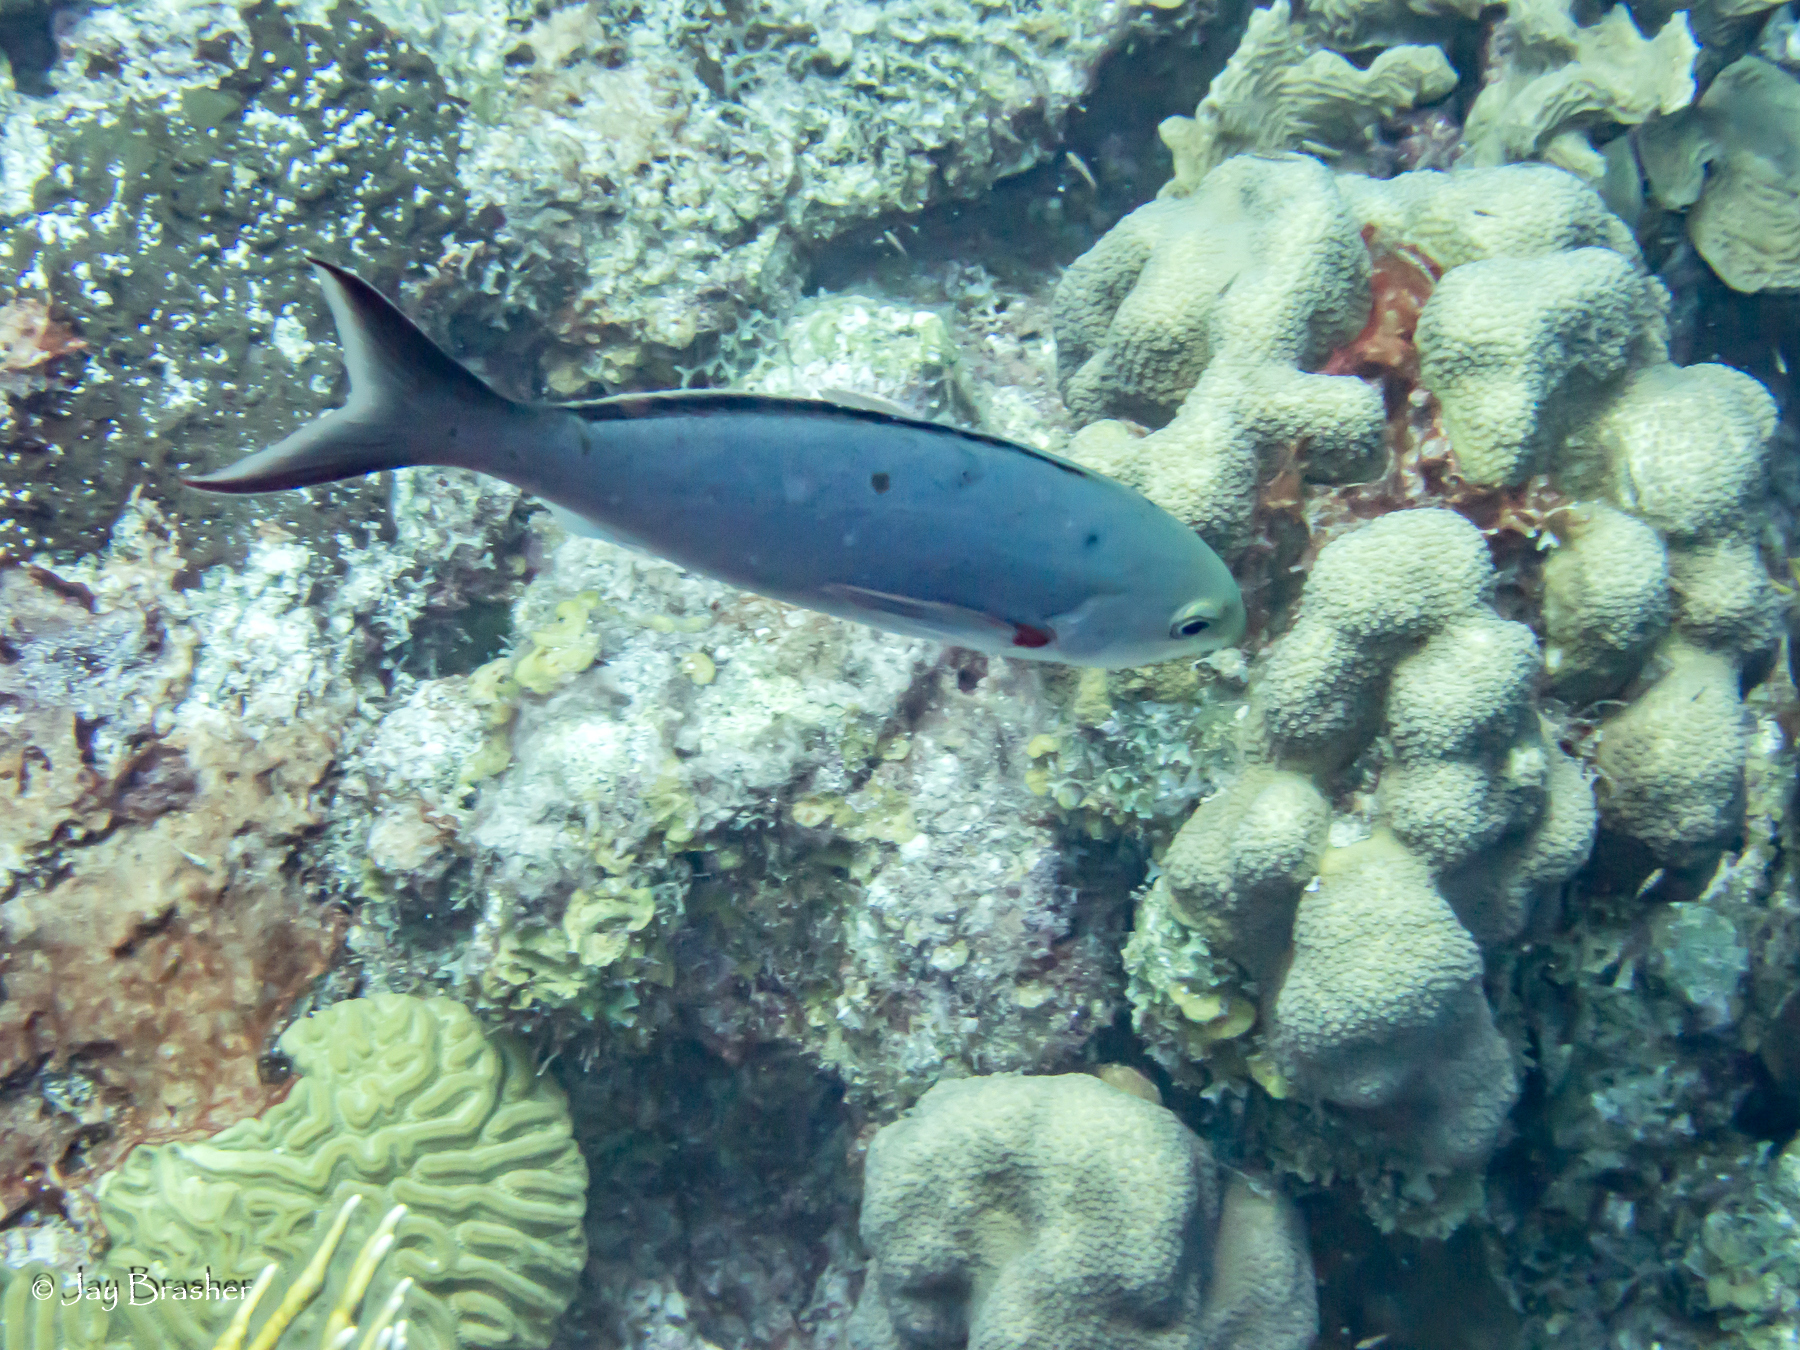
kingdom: Animalia
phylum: Cnidaria
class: Anthozoa
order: Scleractinia
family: Merulinidae
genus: Orbicella
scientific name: Orbicella annularis
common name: Boulder star coral
